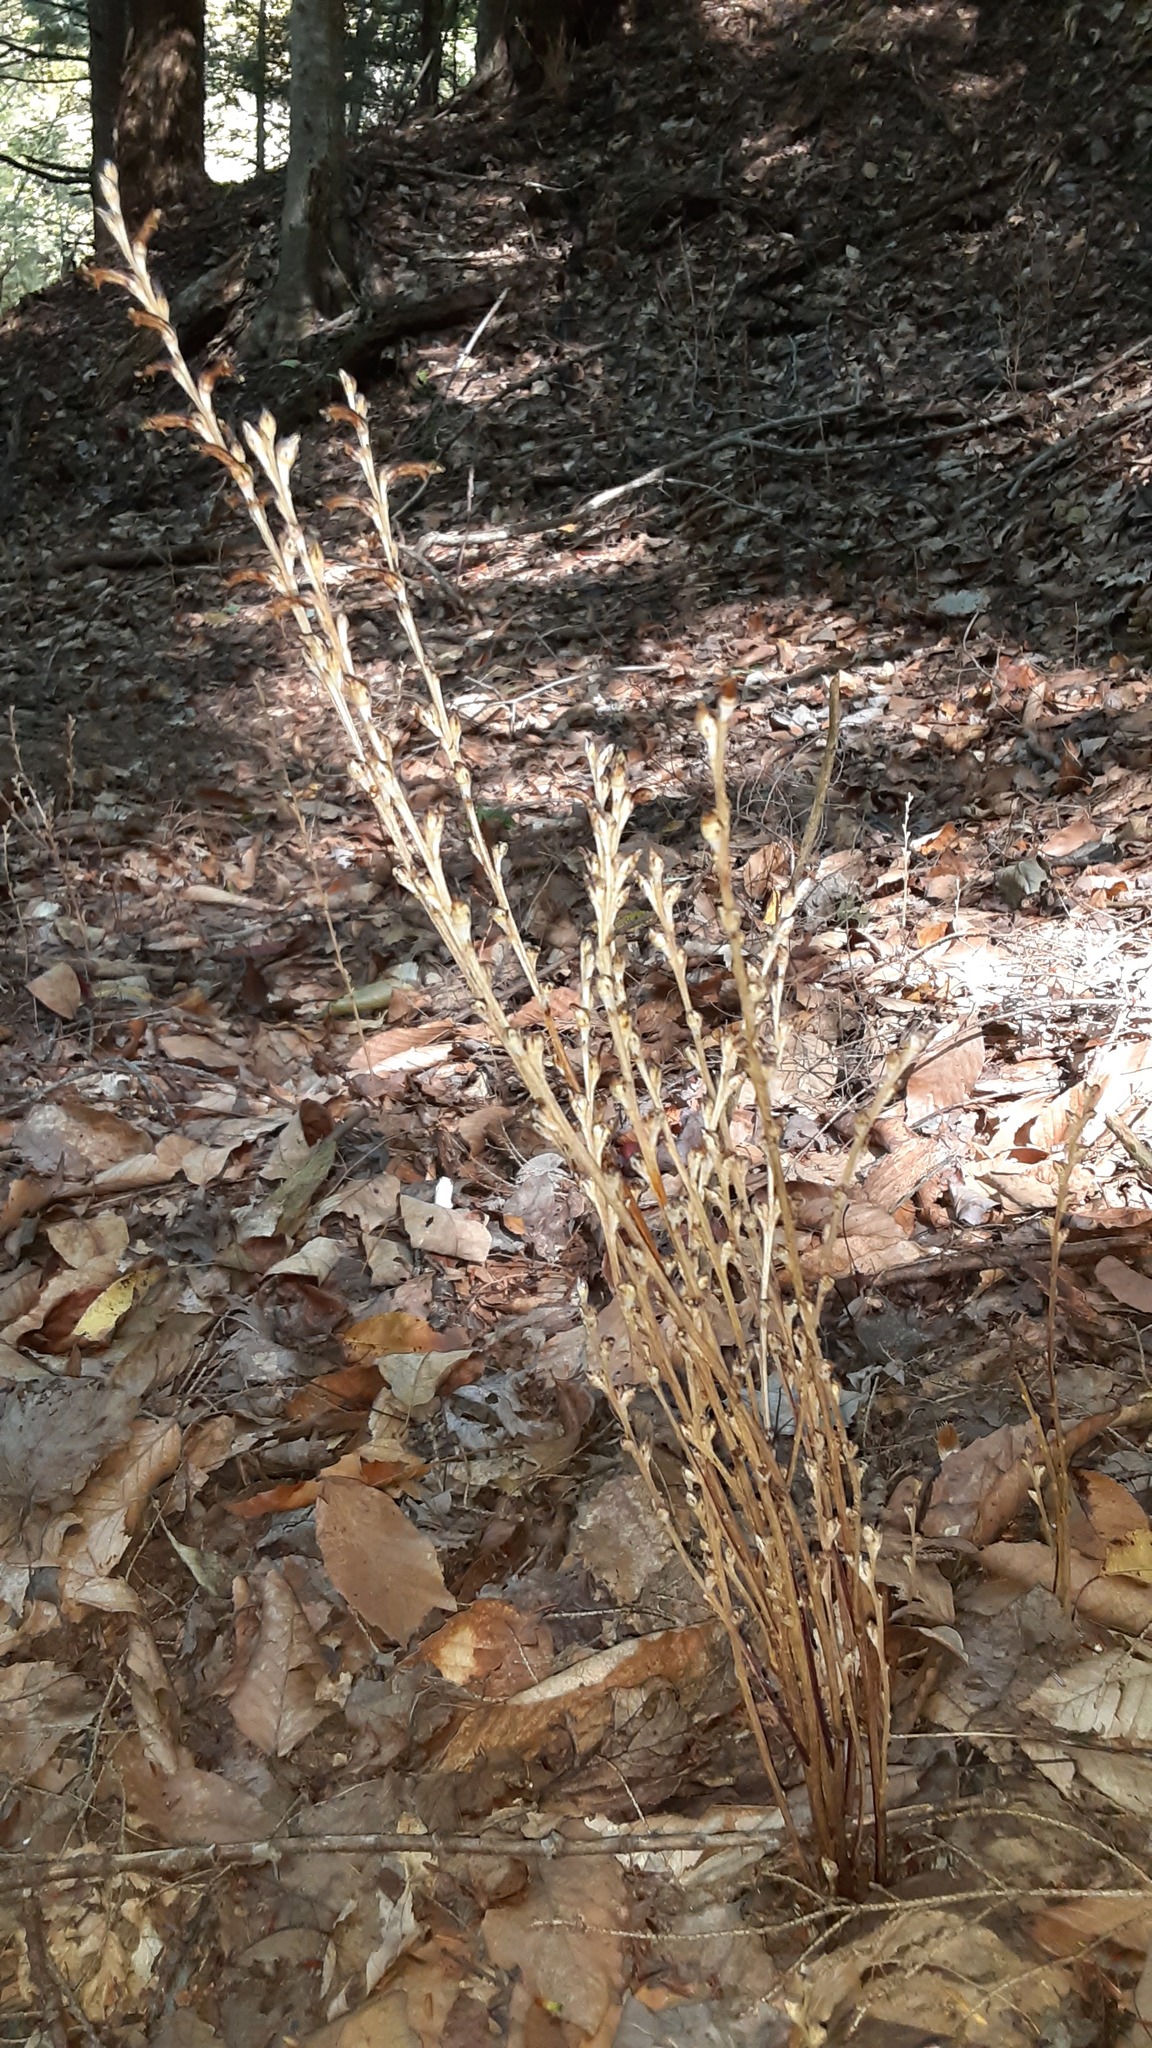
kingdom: Plantae
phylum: Tracheophyta
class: Magnoliopsida
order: Lamiales
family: Orobanchaceae
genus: Epifagus
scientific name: Epifagus virginiana
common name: Beechdrops
